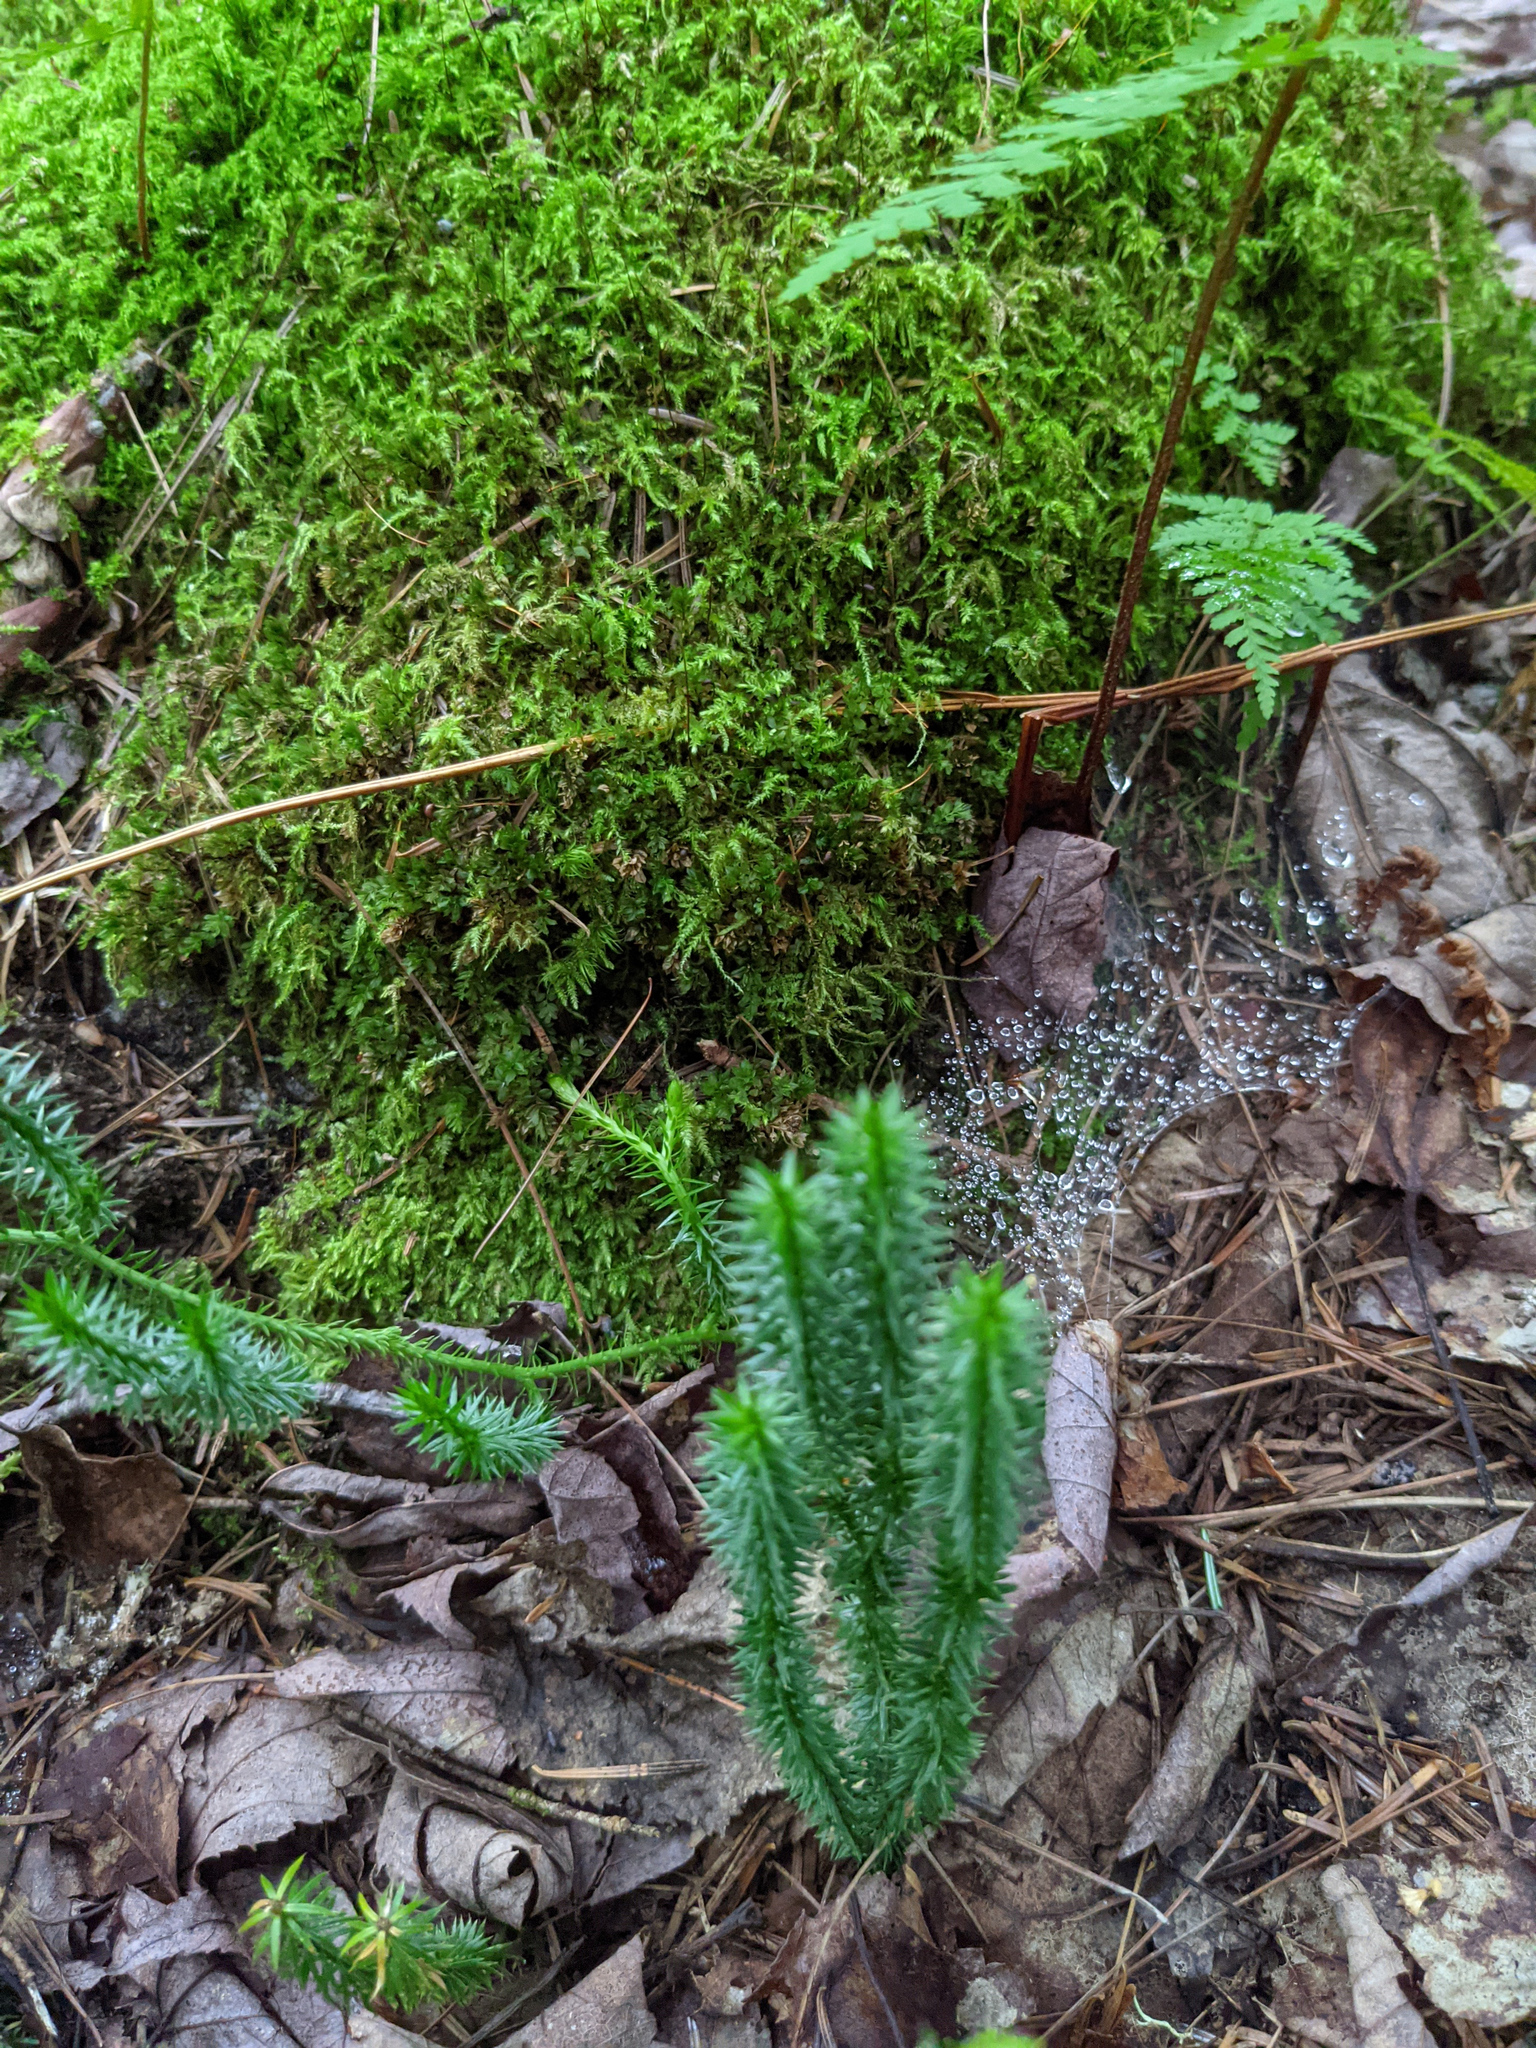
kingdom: Plantae
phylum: Tracheophyta
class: Lycopodiopsida
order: Lycopodiales
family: Lycopodiaceae
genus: Spinulum
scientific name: Spinulum annotinum
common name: Interrupted club-moss
